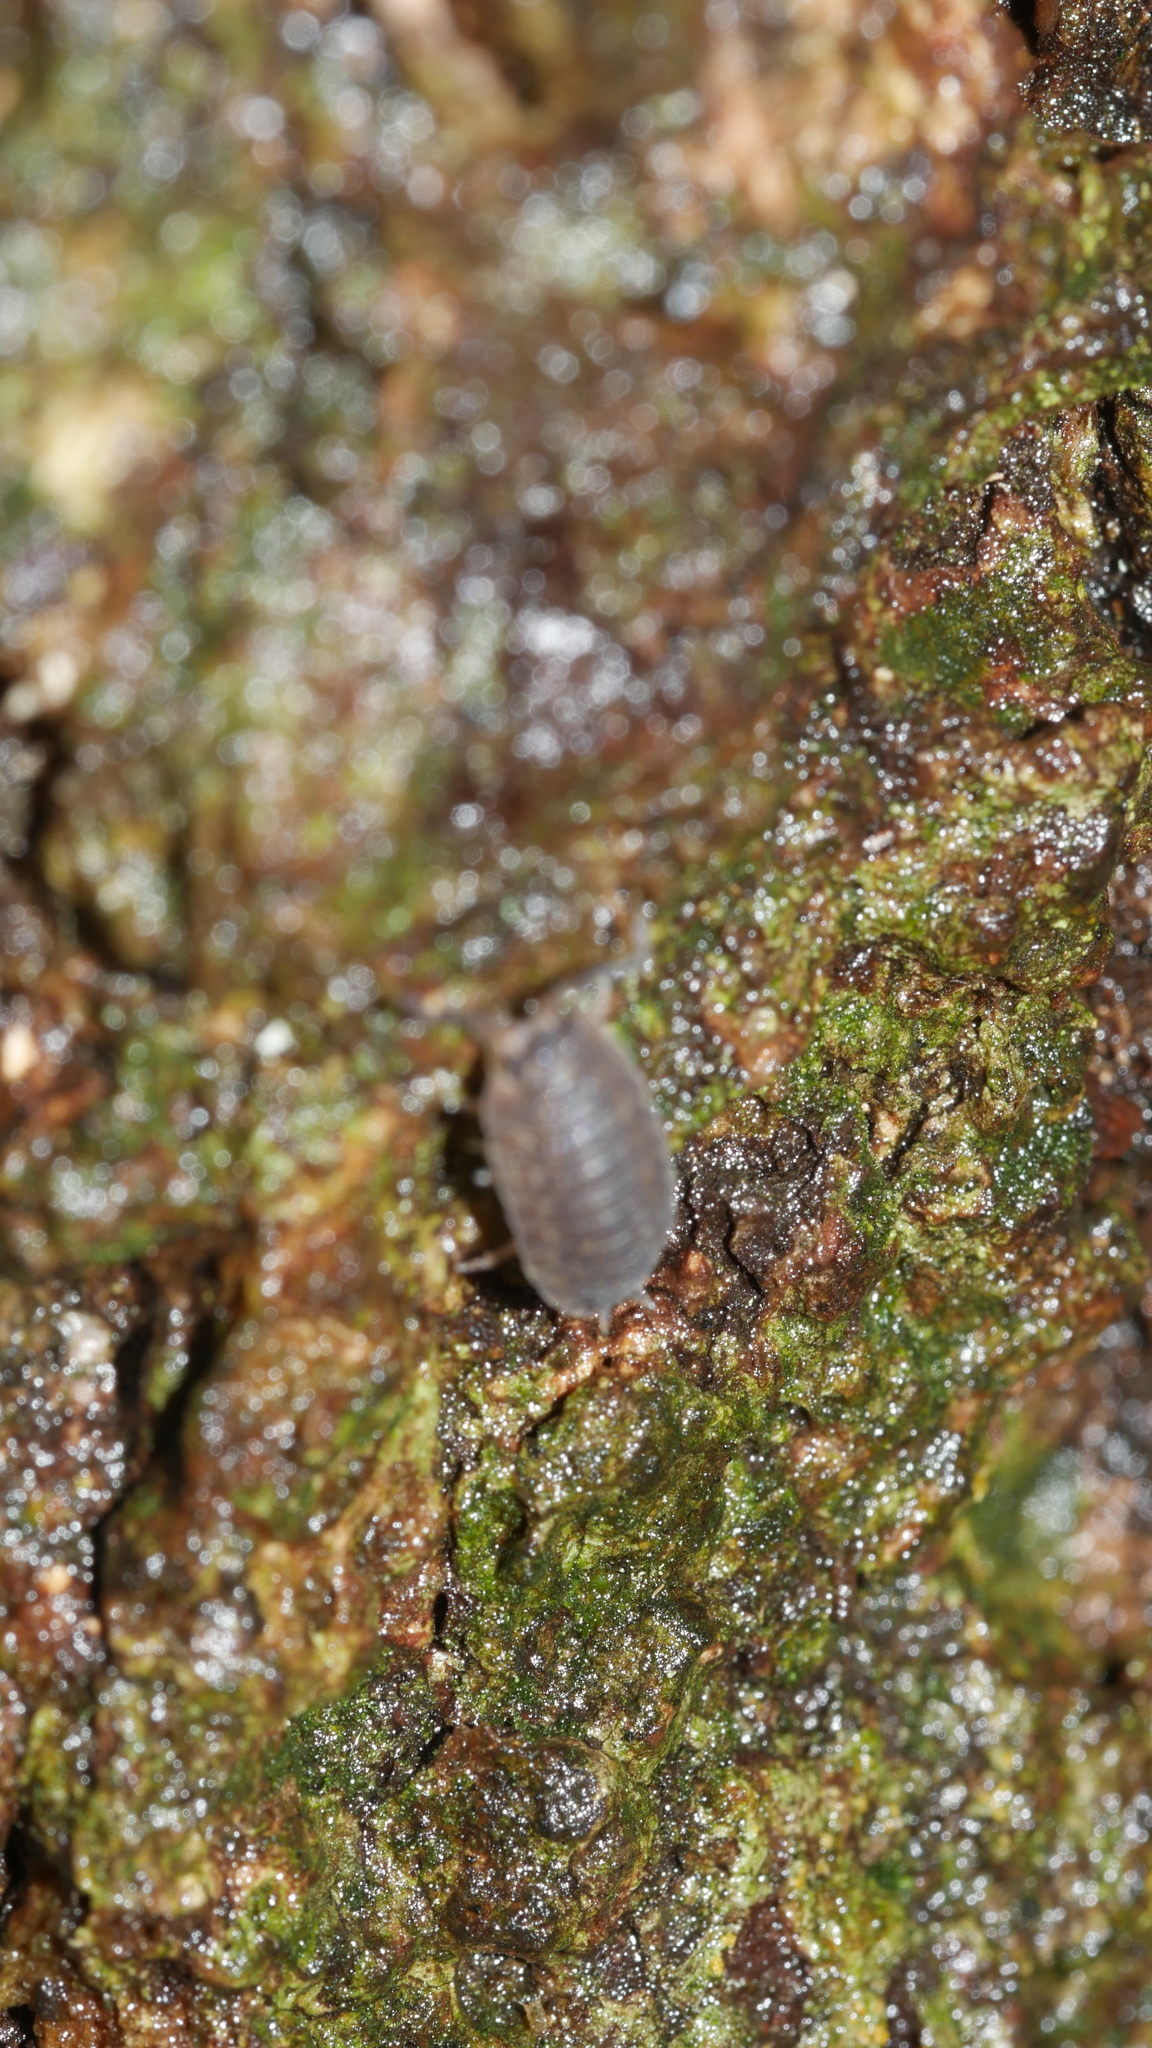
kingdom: Animalia
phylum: Arthropoda
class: Malacostraca
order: Isopoda
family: Porcellionidae
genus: Porcellio
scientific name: Porcellio scaber
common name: Common rough woodlouse
